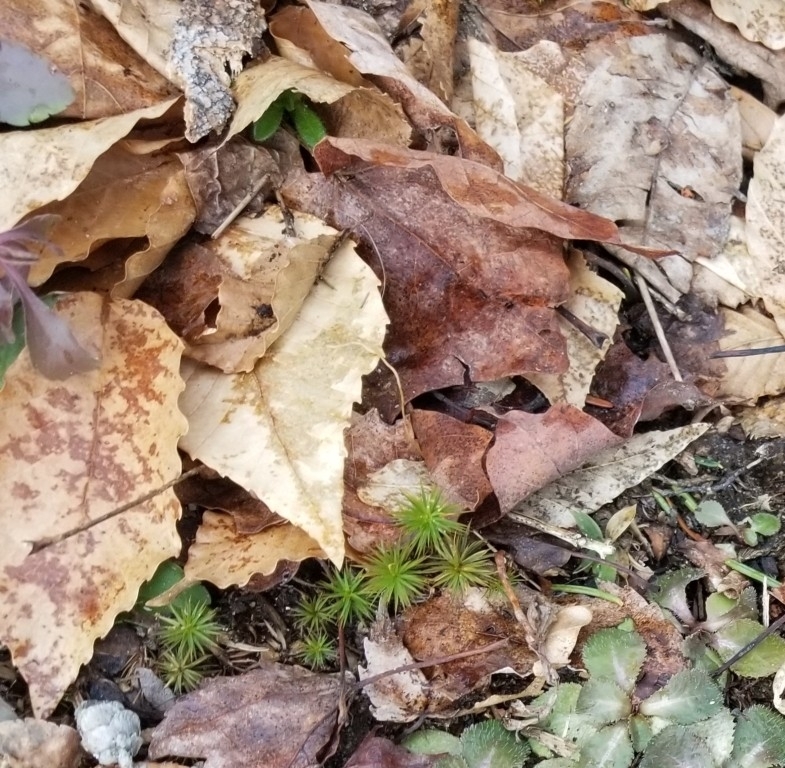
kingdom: Plantae
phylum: Tracheophyta
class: Magnoliopsida
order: Fagales
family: Fagaceae
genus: Fagus
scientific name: Fagus grandifolia
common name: American beech
